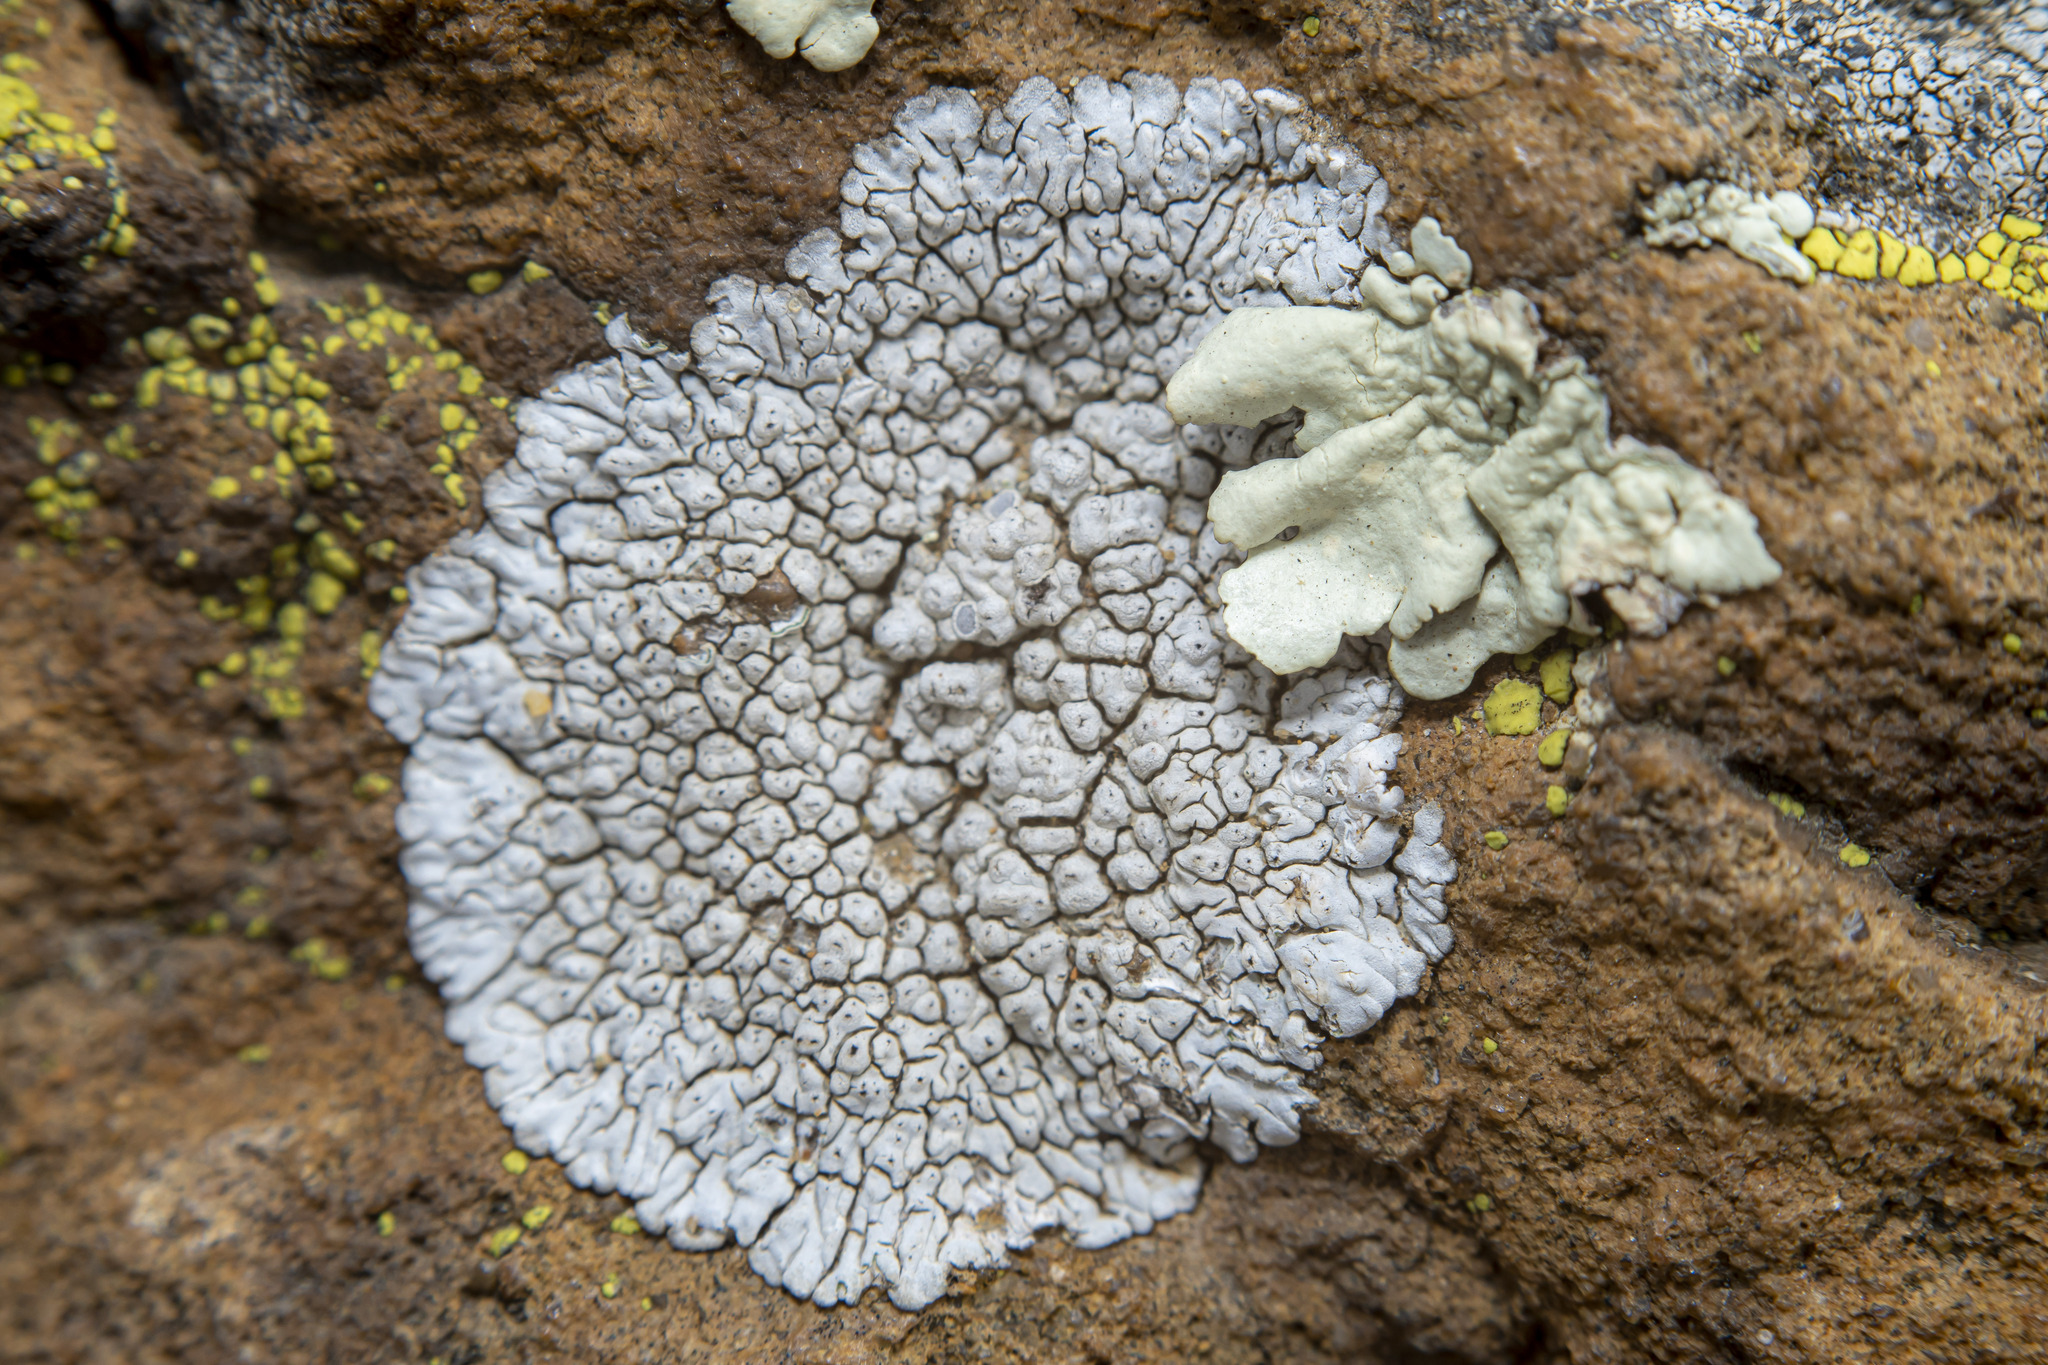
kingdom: Fungi
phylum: Ascomycota
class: Lecanoromycetes
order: Caliciales
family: Caliciaceae
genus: Dimelaena
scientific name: Dimelaena radiata
